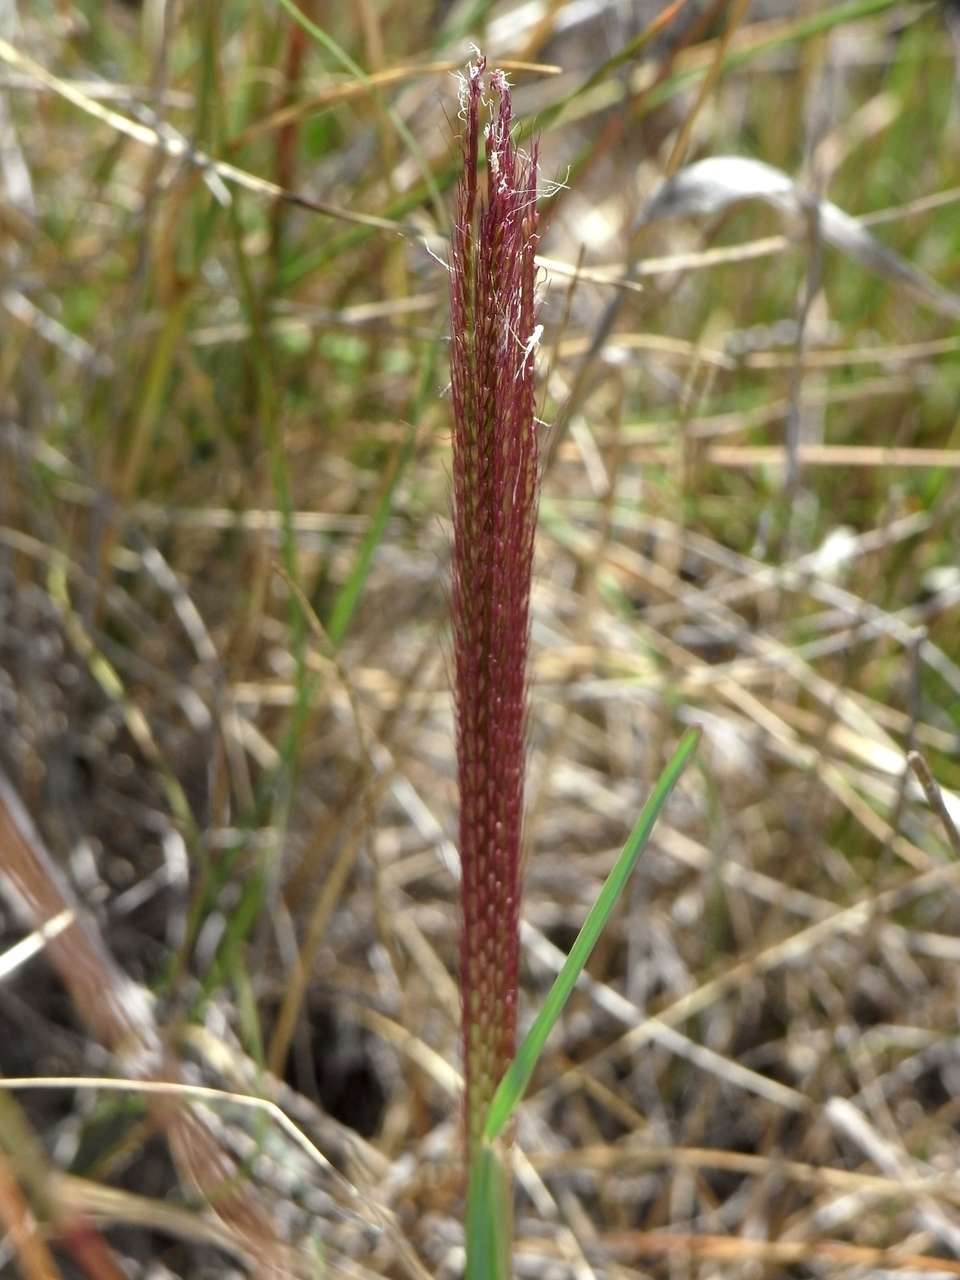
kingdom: Plantae
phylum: Tracheophyta
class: Liliopsida
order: Poales
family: Poaceae
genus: Chloris
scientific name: Chloris truncata
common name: Windmill-grass
